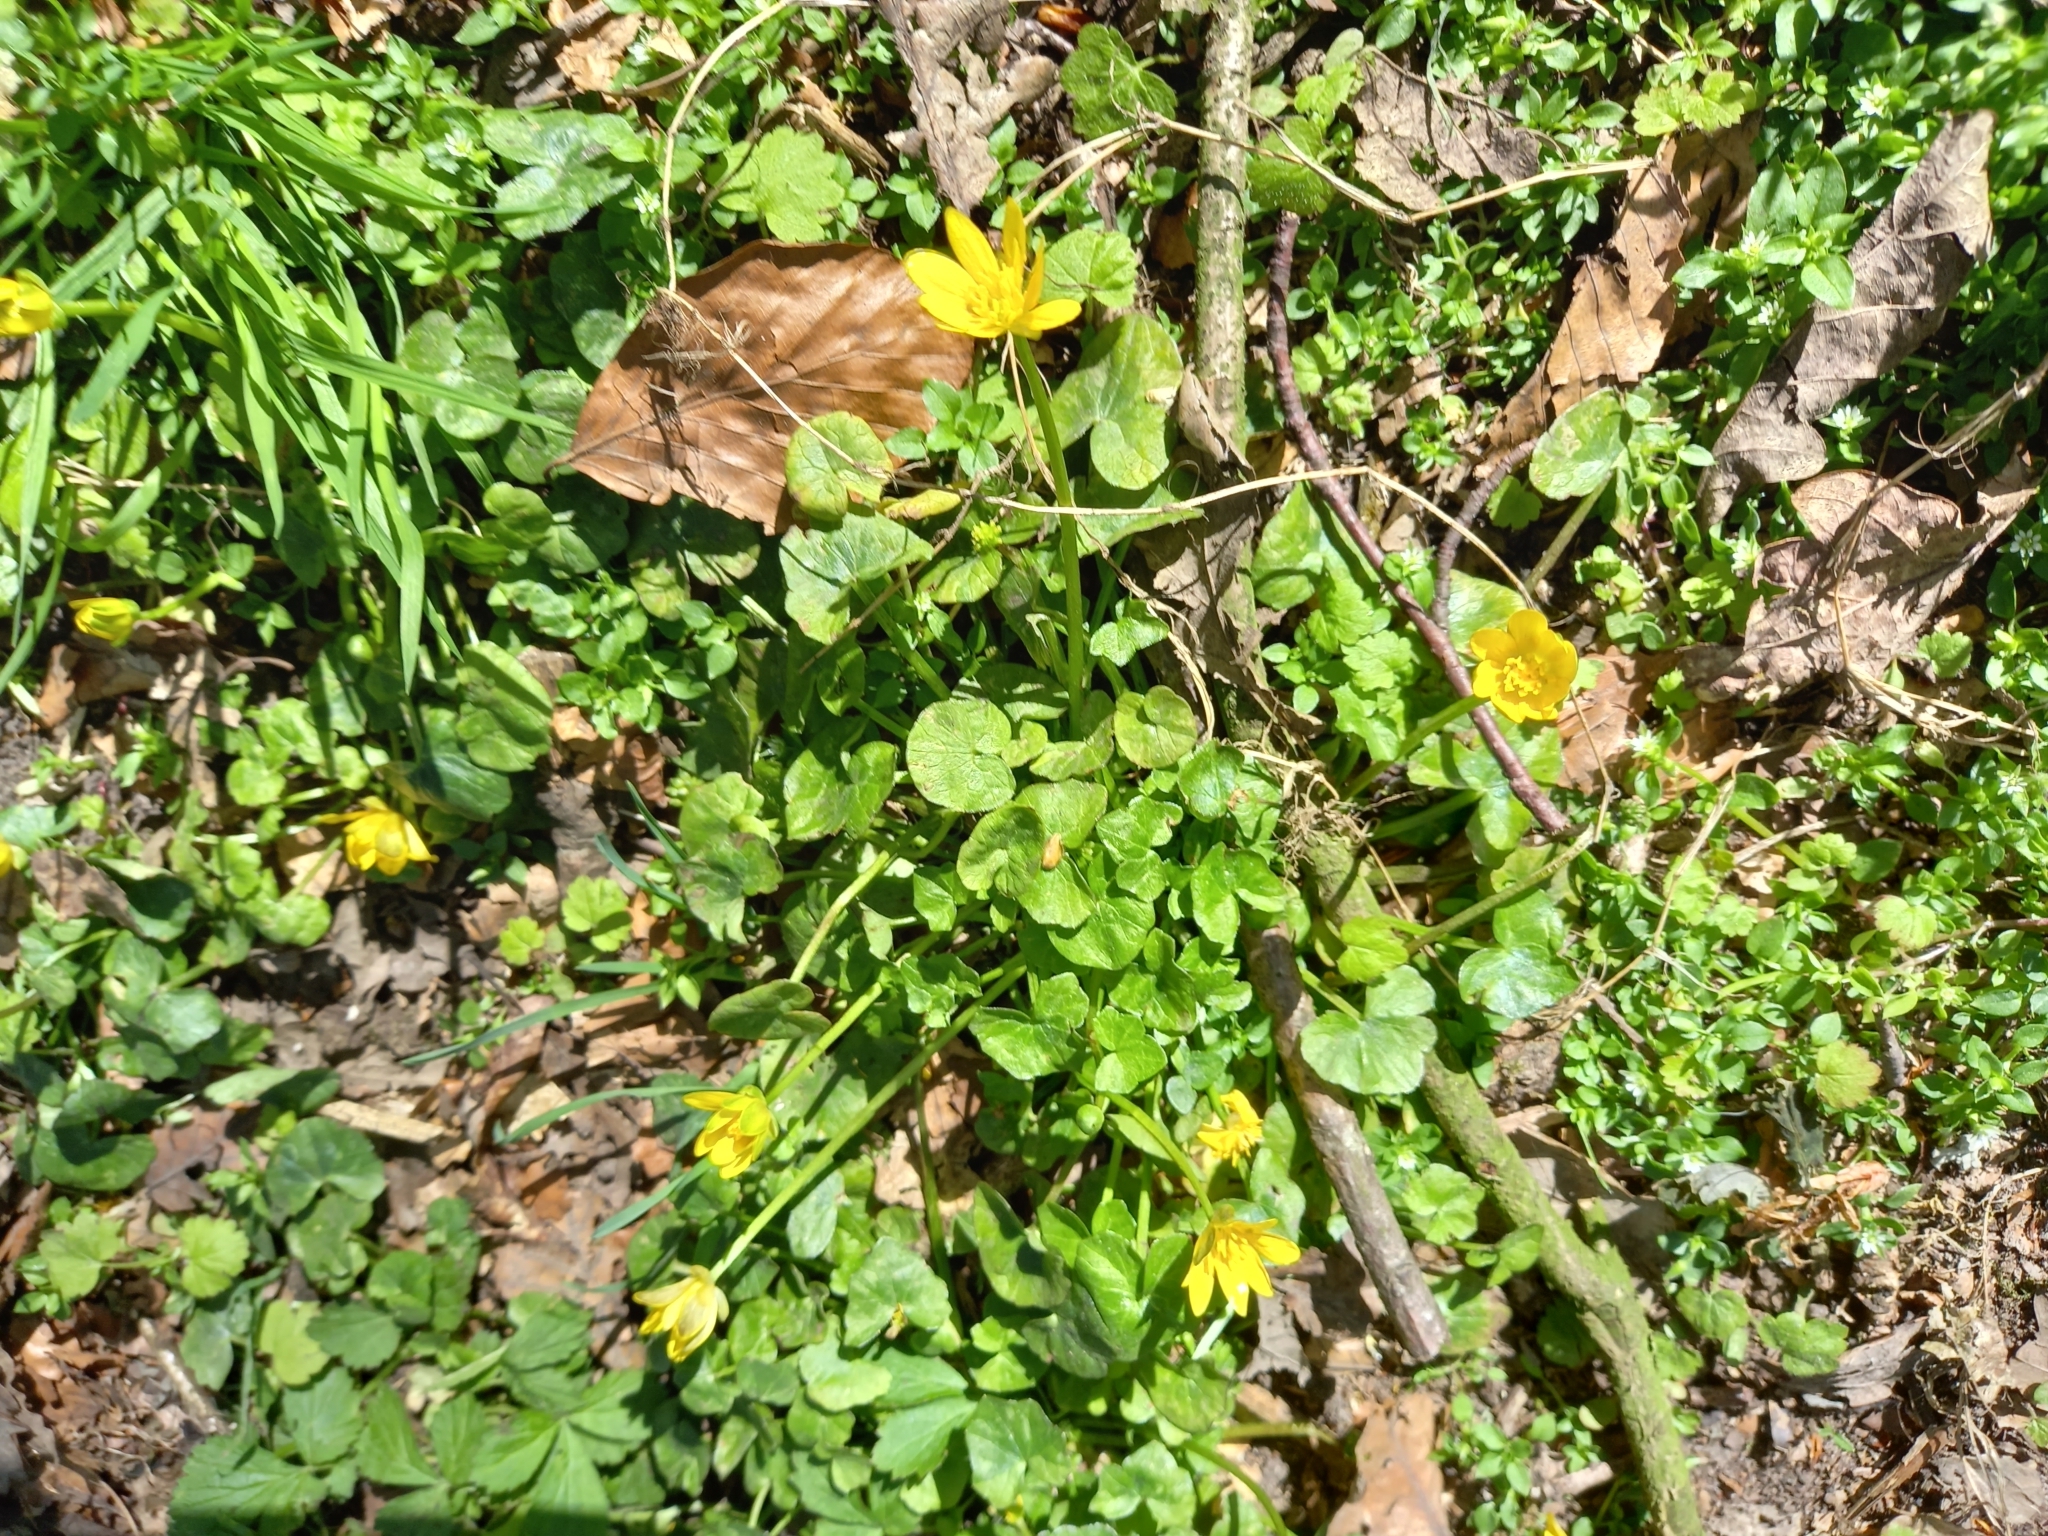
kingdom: Plantae
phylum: Tracheophyta
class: Magnoliopsida
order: Ranunculales
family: Ranunculaceae
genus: Ficaria
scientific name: Ficaria verna
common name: Lesser celandine
